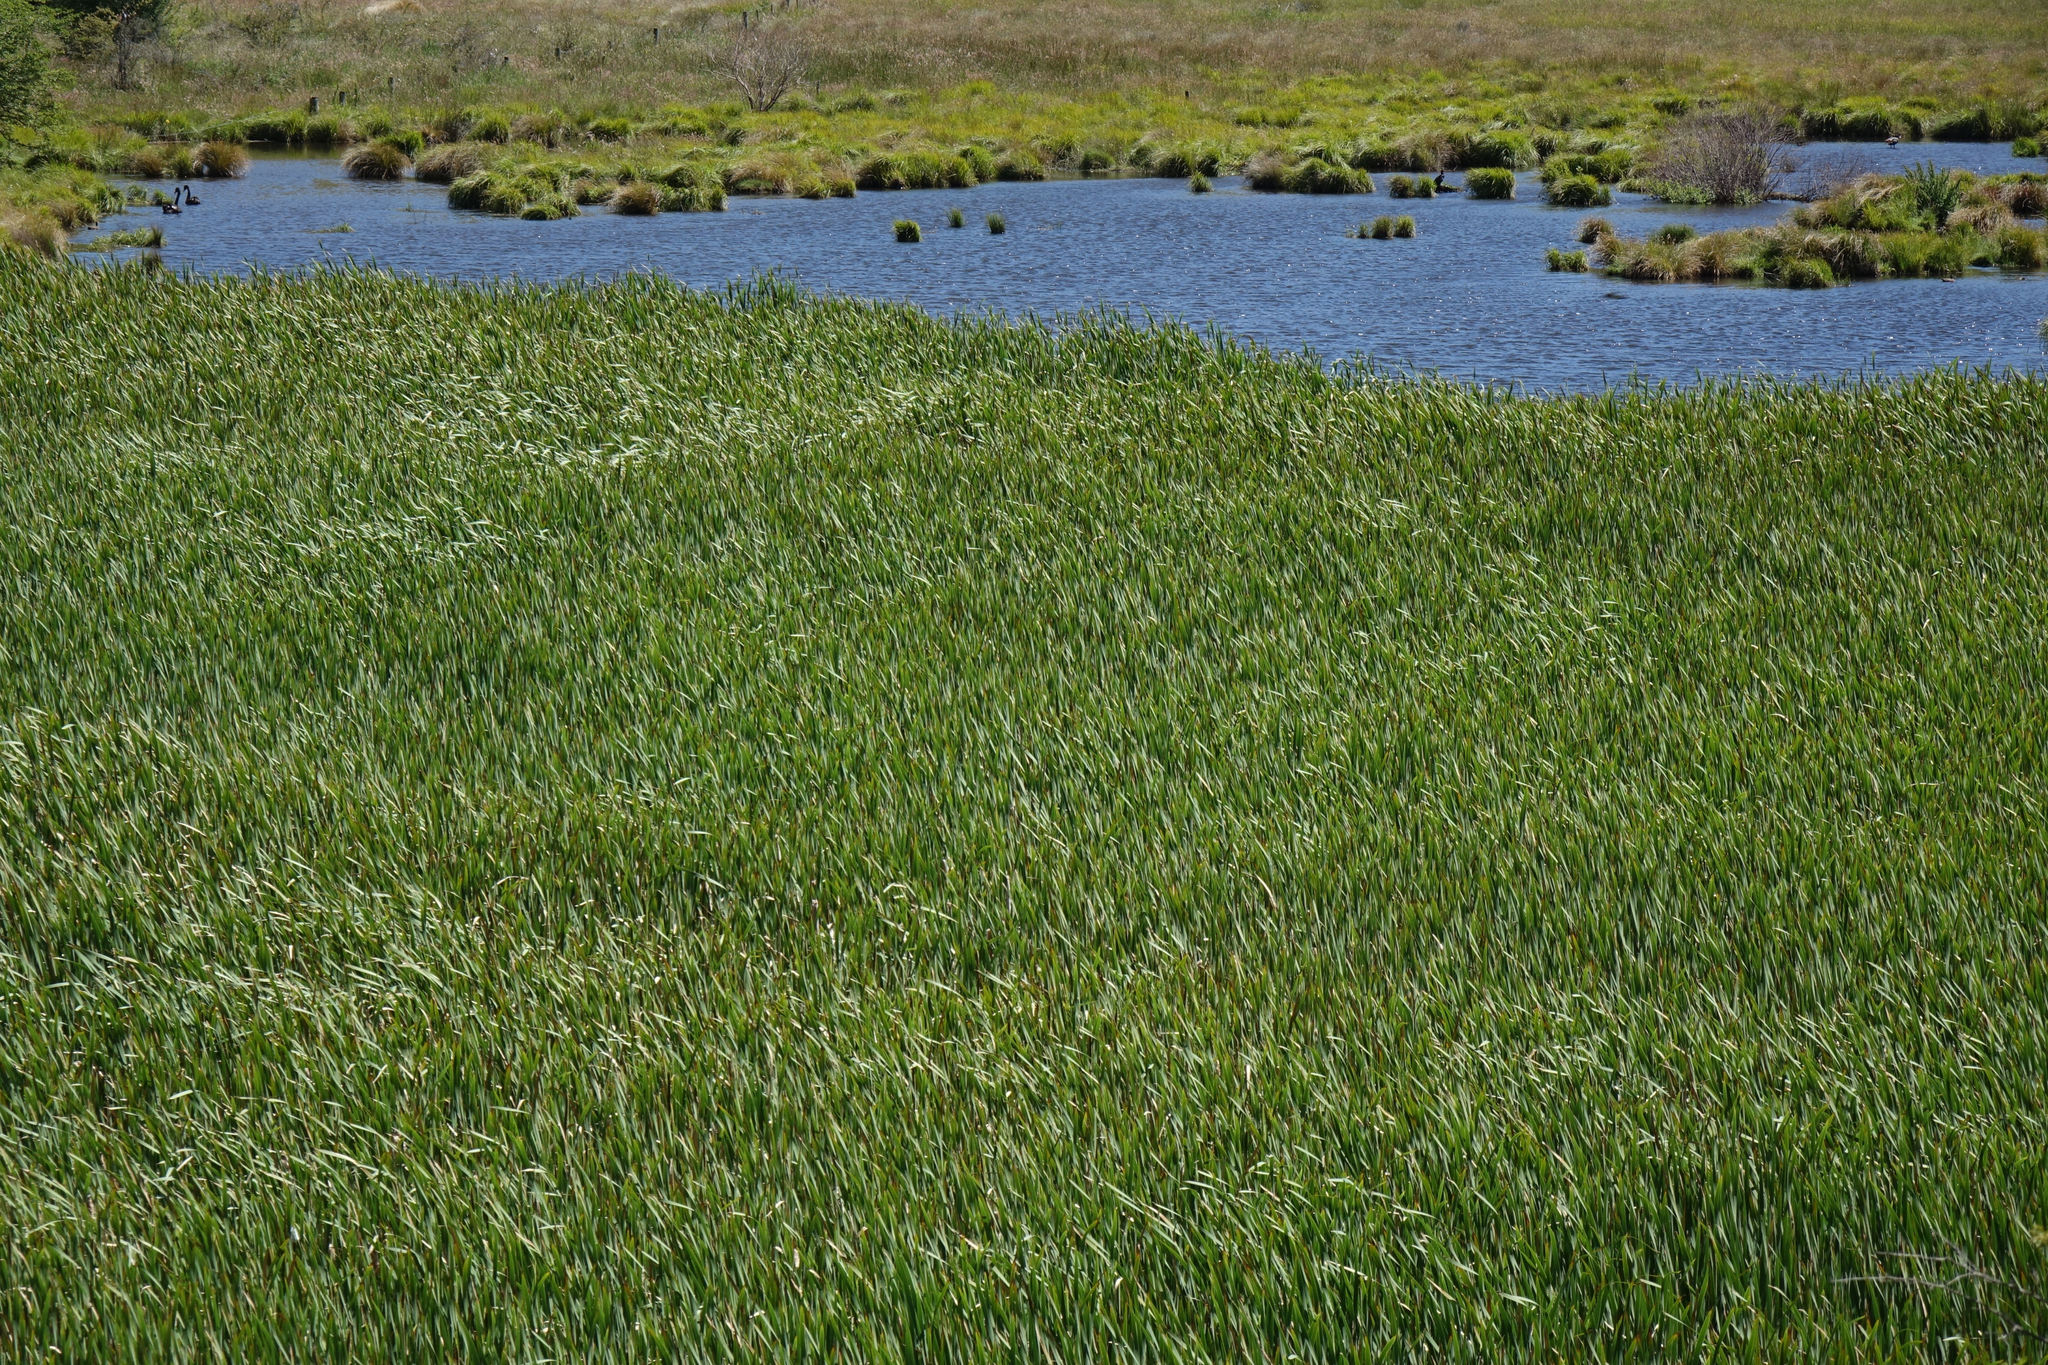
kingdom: Plantae
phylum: Tracheophyta
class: Liliopsida
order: Poales
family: Typhaceae
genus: Typha
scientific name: Typha orientalis
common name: Bullrush
